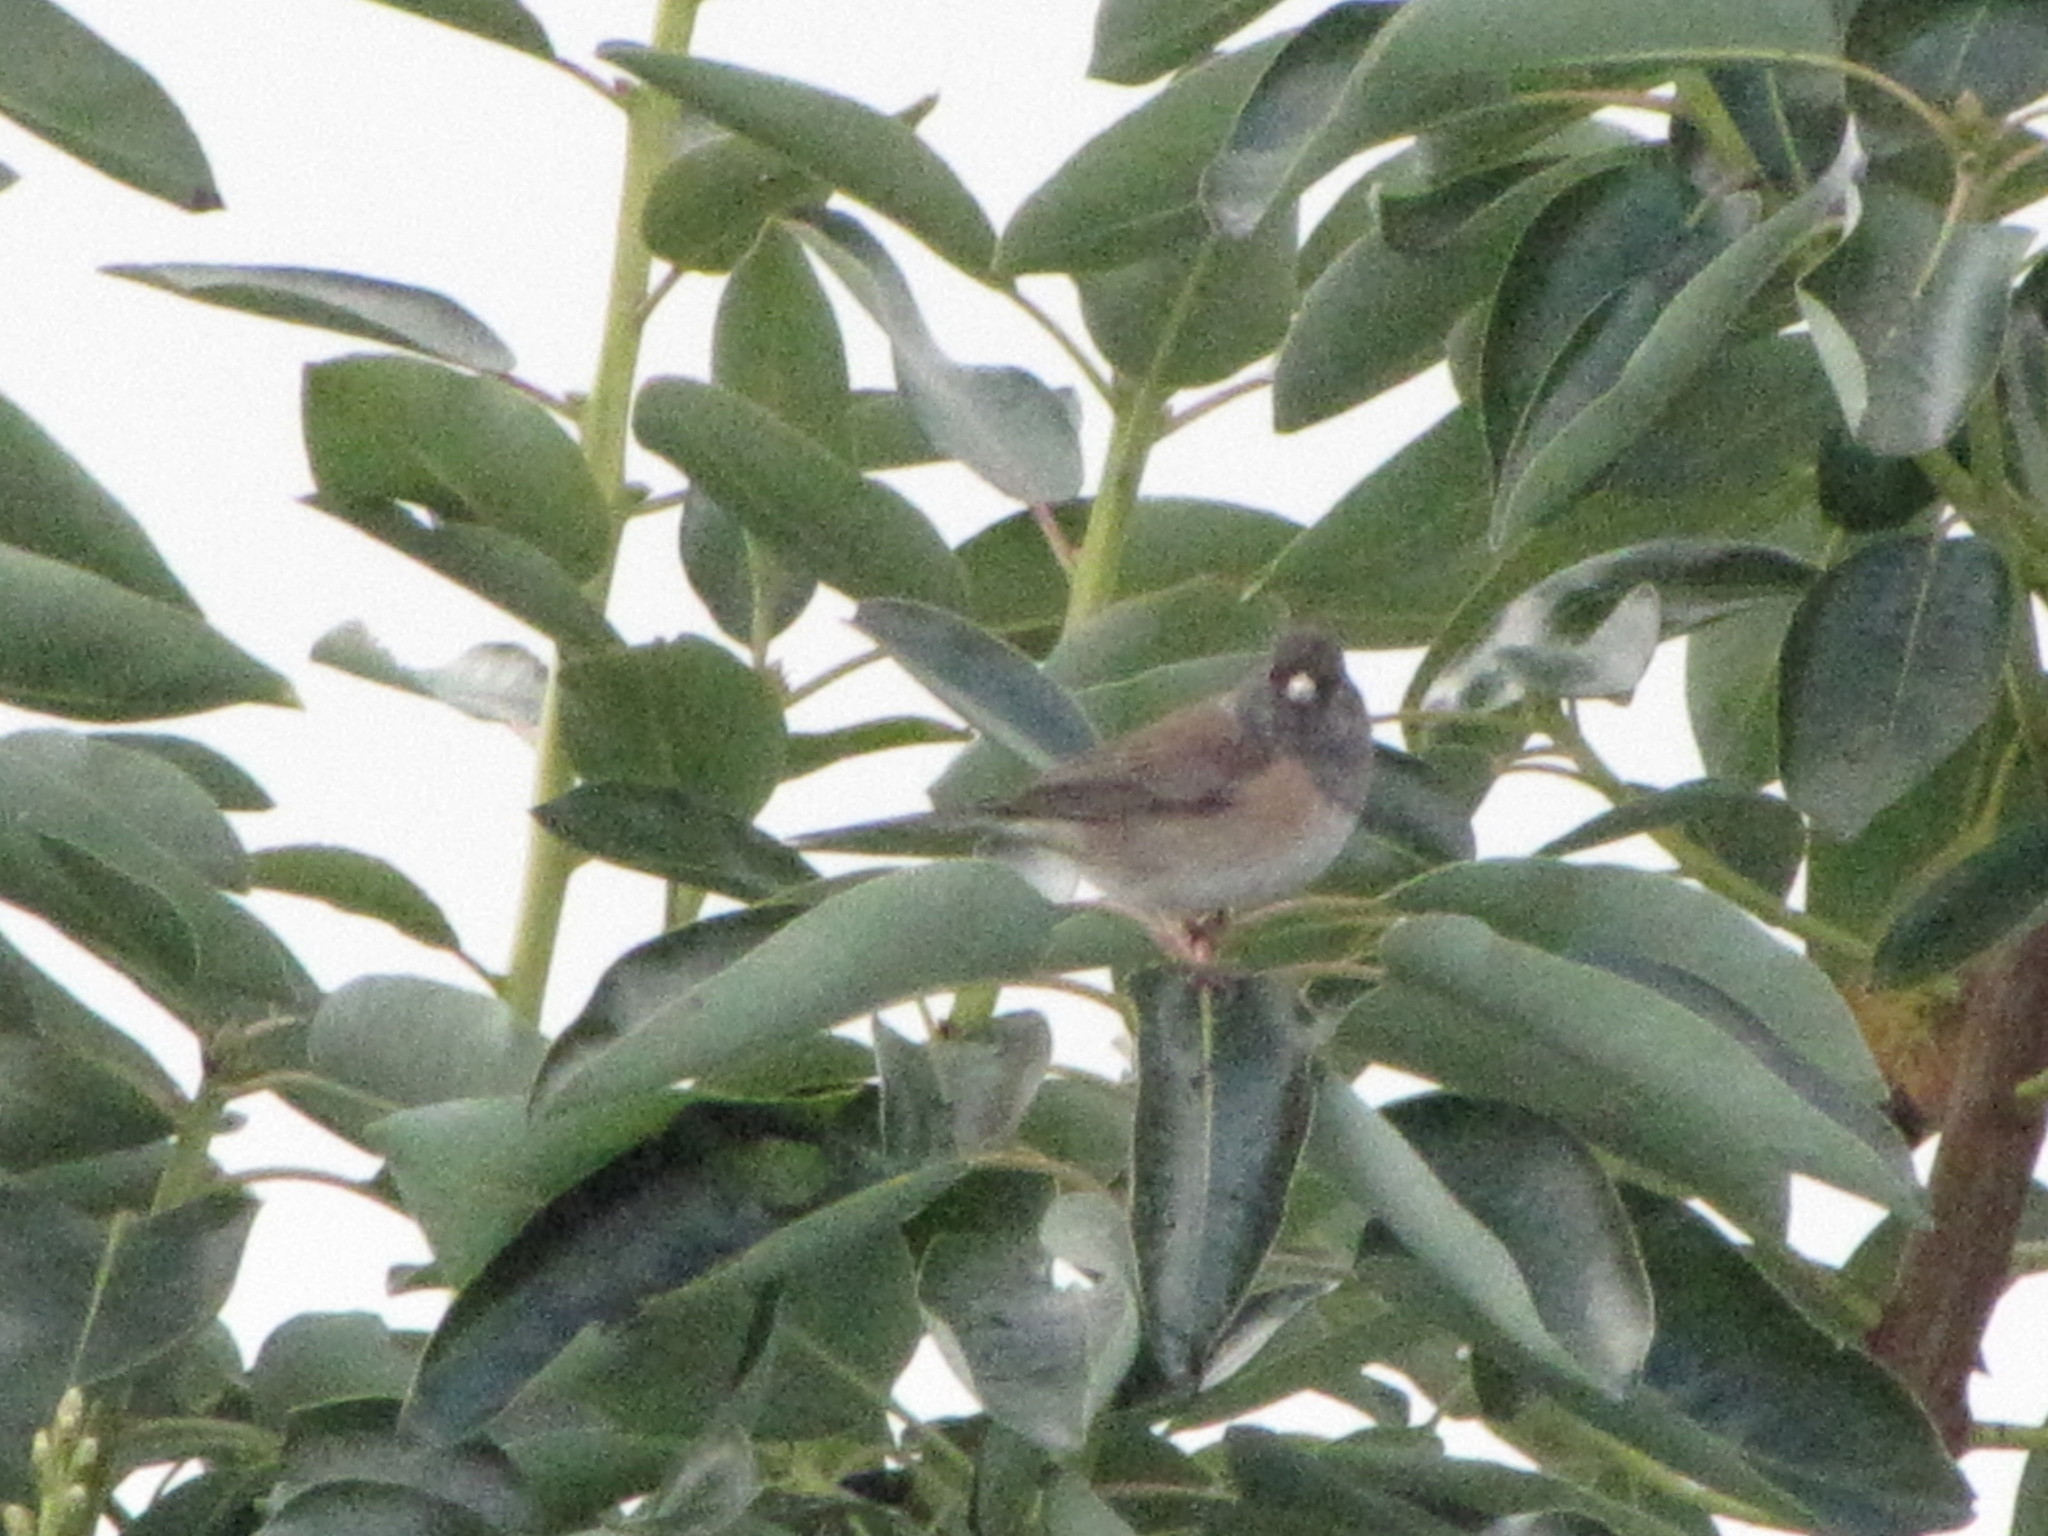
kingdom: Animalia
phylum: Chordata
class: Aves
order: Passeriformes
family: Passerellidae
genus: Junco
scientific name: Junco hyemalis
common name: Dark-eyed junco
